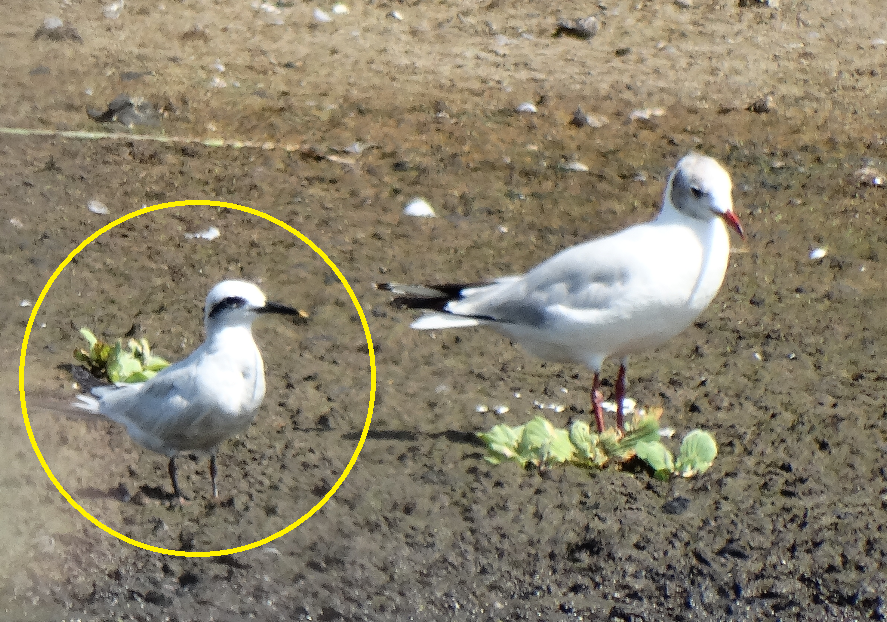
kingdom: Animalia
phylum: Chordata
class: Aves
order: Charadriiformes
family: Laridae
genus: Sterna
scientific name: Sterna trudeaui
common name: Snowy-crowned tern
